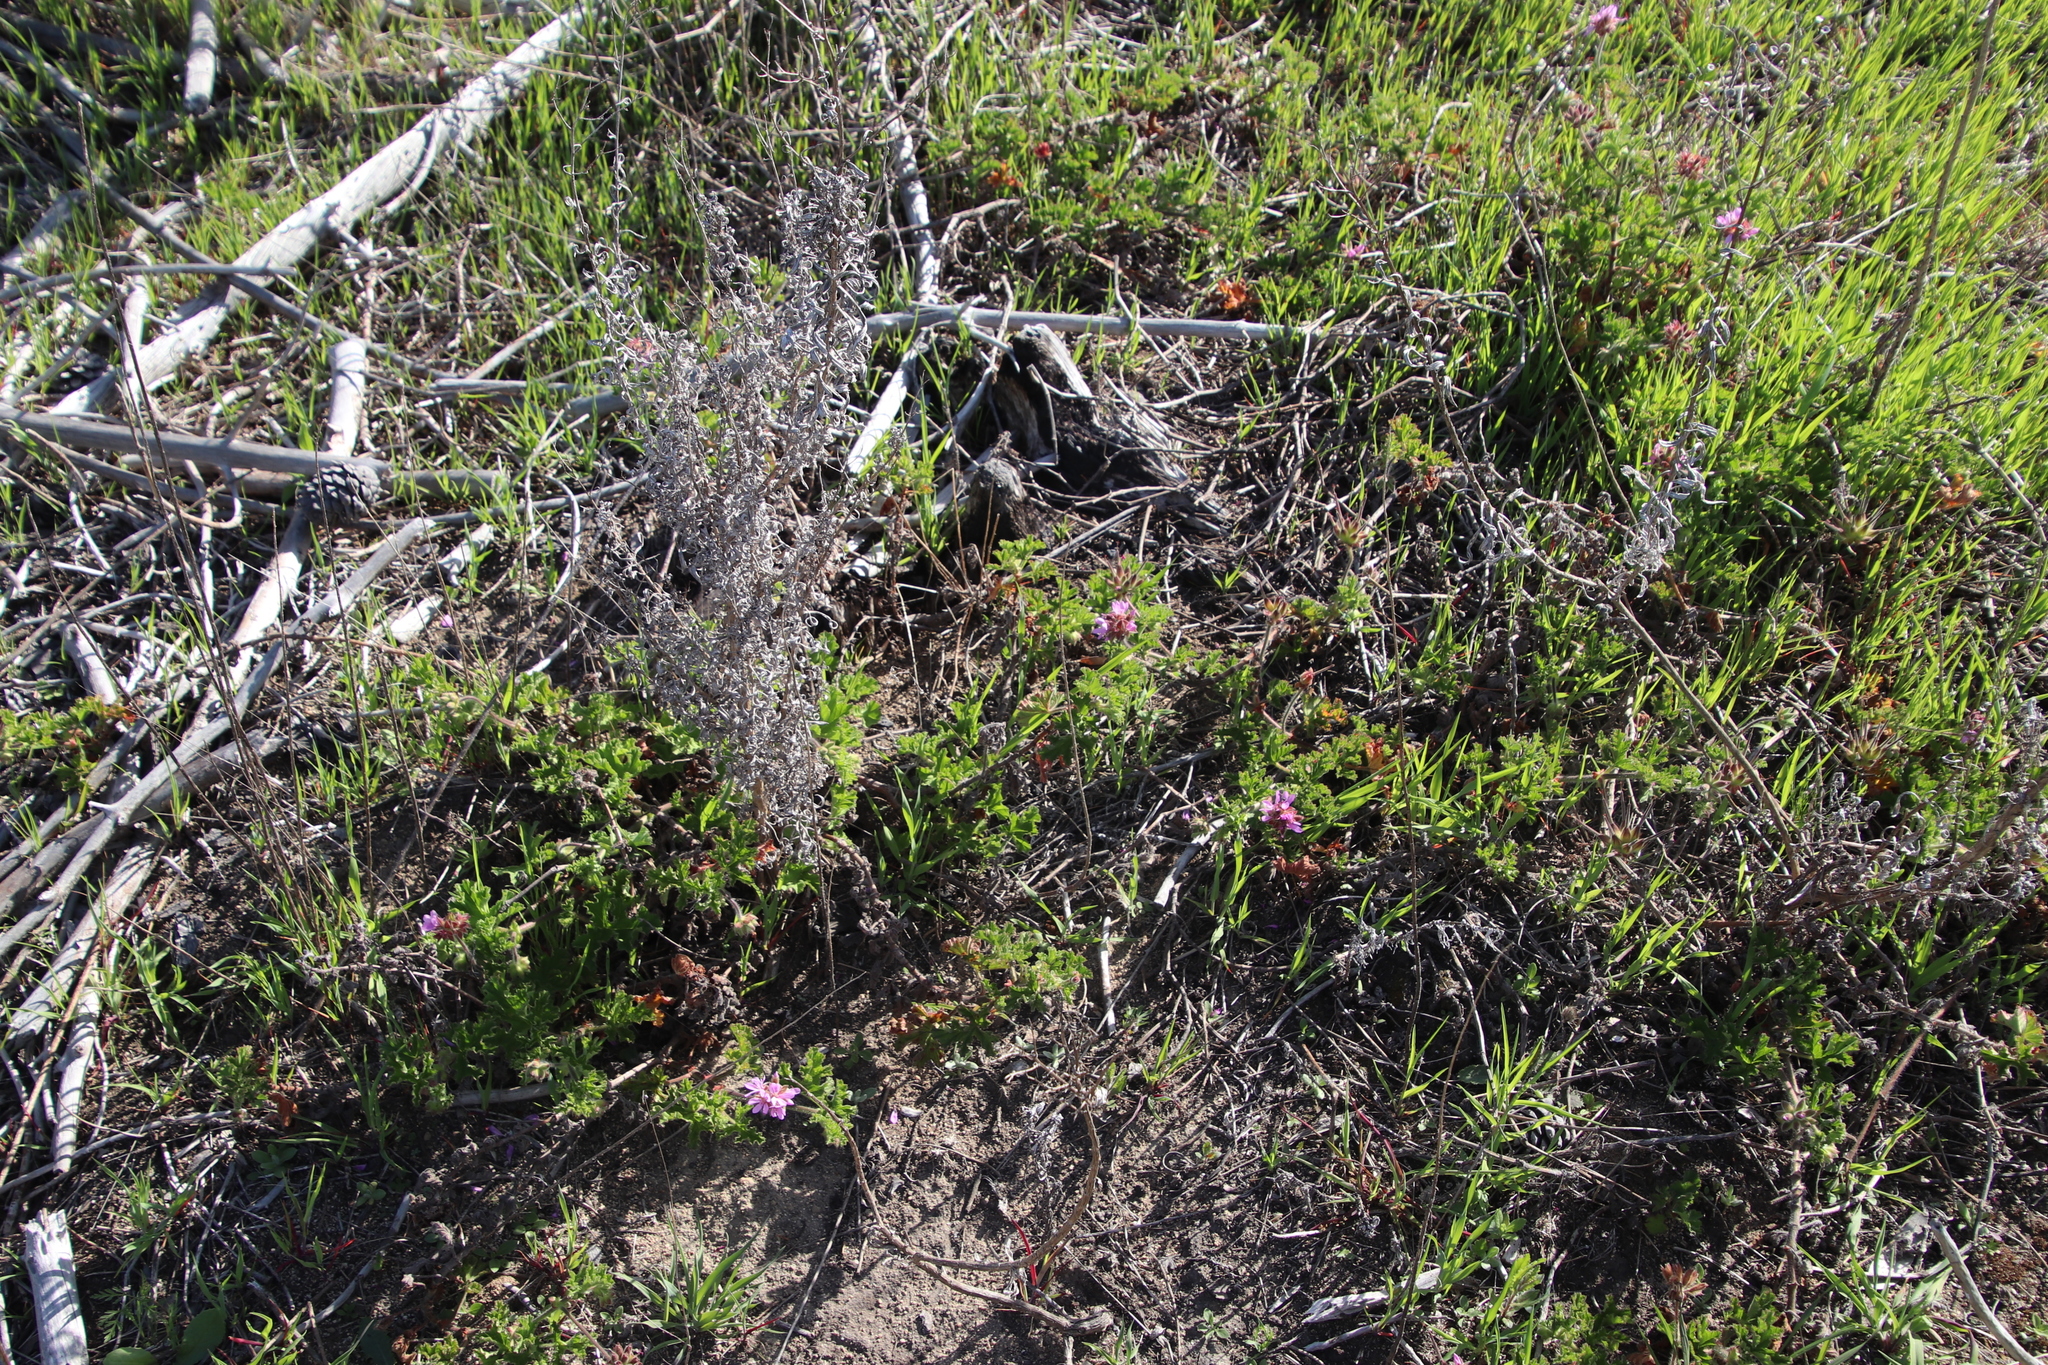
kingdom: Plantae
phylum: Tracheophyta
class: Magnoliopsida
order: Geraniales
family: Geraniaceae
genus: Pelargonium
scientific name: Pelargonium capitatum
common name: Rose scented geranium
